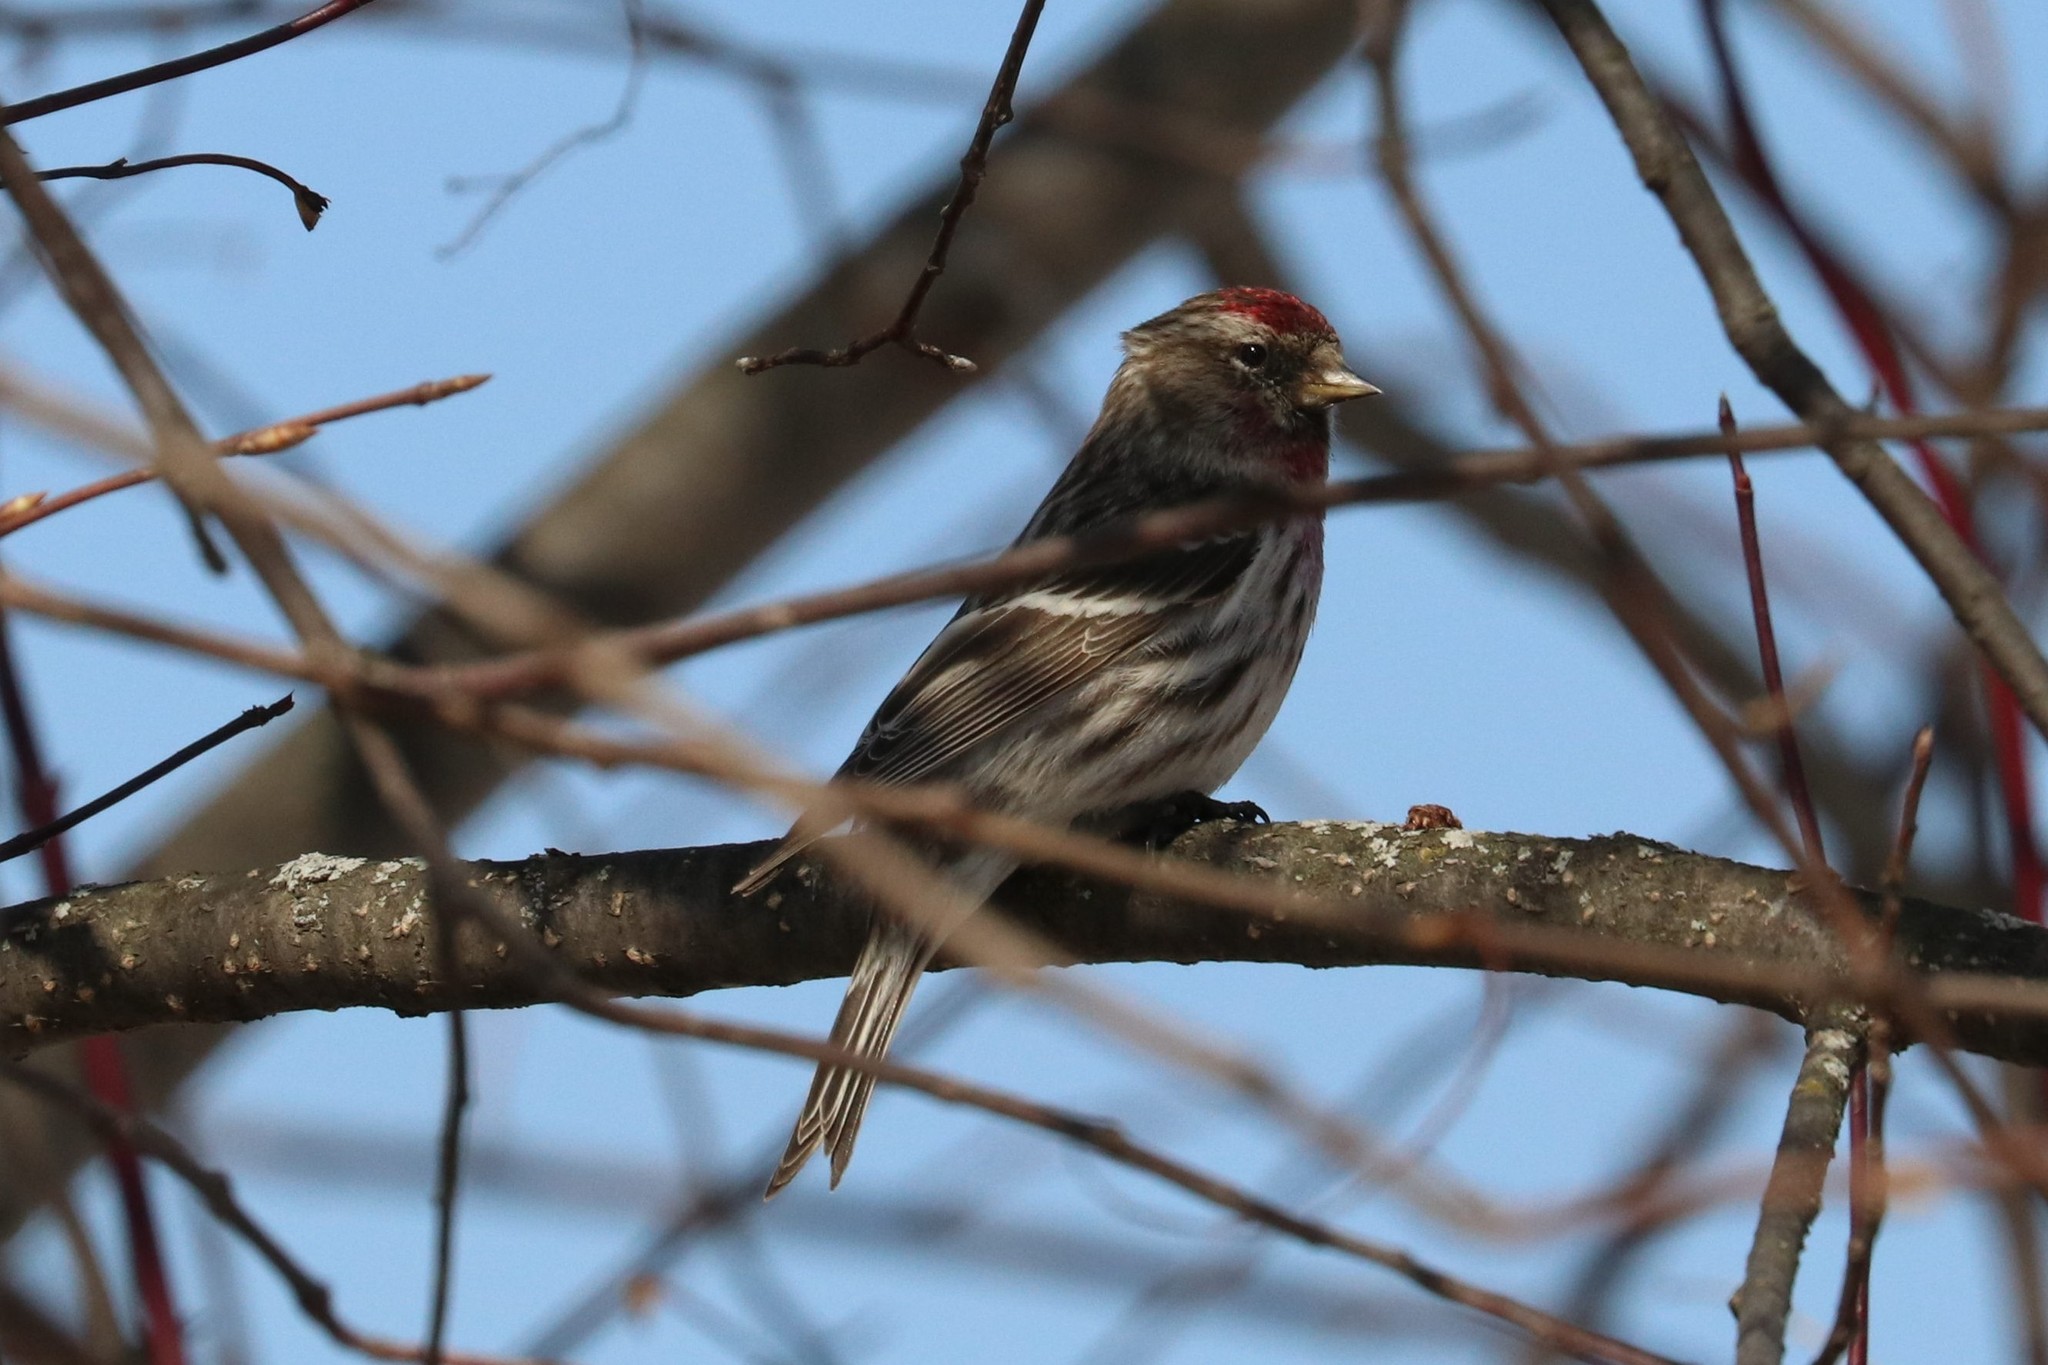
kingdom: Animalia
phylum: Chordata
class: Aves
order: Passeriformes
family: Fringillidae
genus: Acanthis
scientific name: Acanthis flammea
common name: Common redpoll
